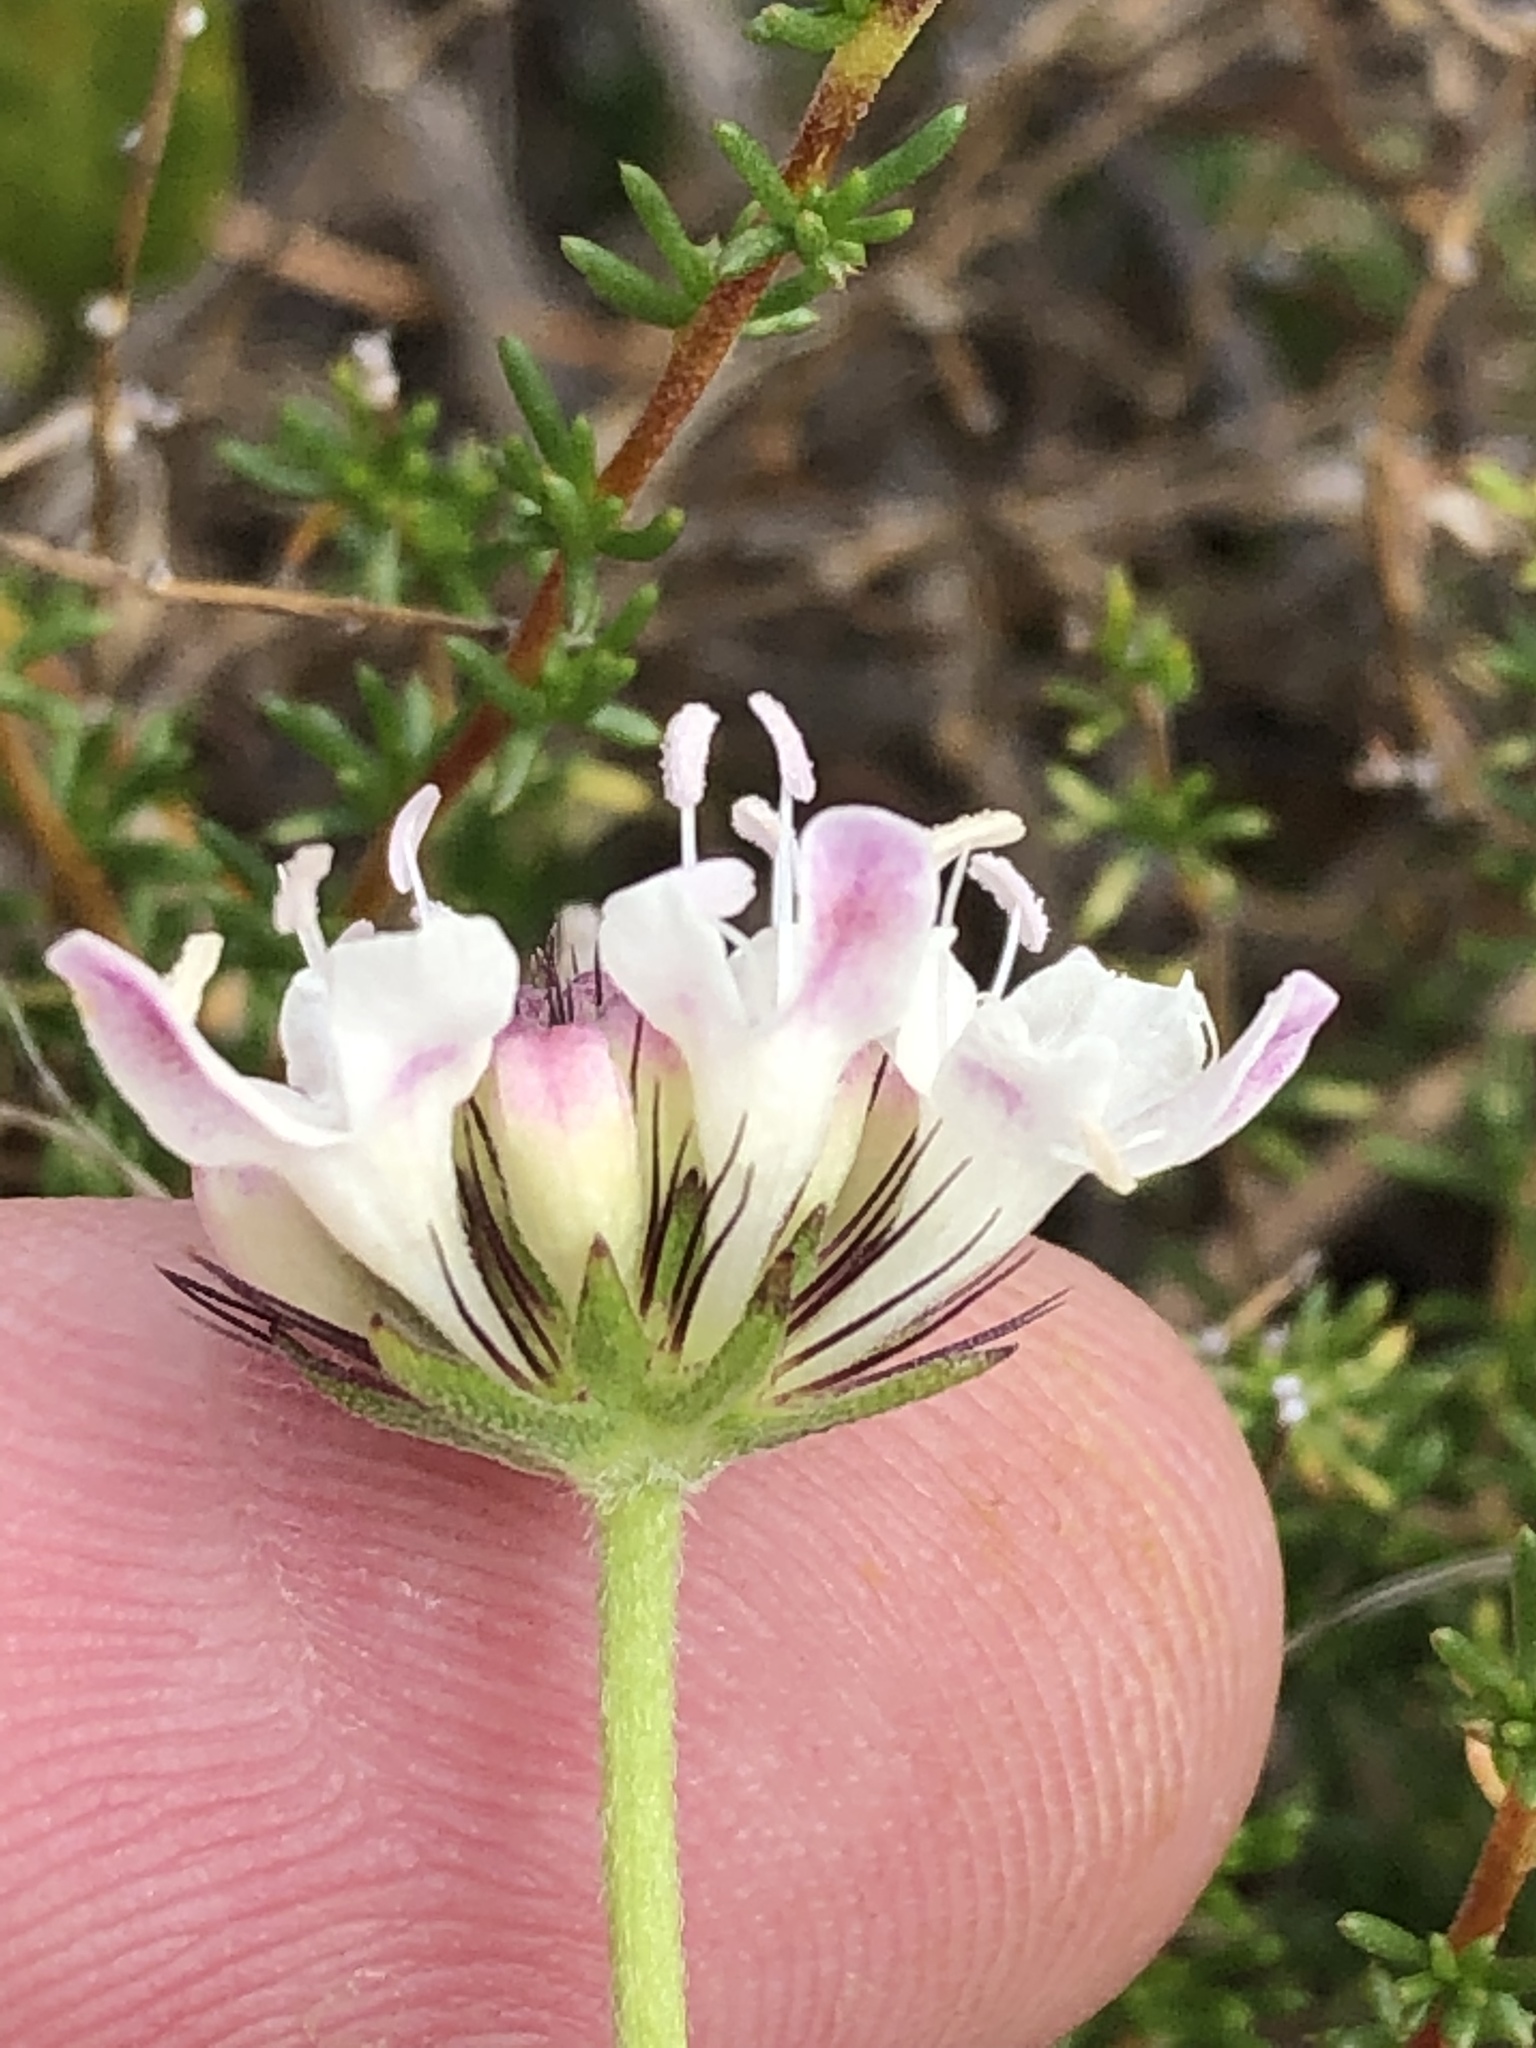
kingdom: Plantae
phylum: Tracheophyta
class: Magnoliopsida
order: Dipsacales
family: Caprifoliaceae
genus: Scabiosa
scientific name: Scabiosa columbaria
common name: Small scabious
